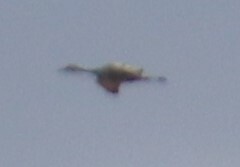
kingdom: Animalia
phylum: Chordata
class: Aves
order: Gruiformes
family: Gruidae
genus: Grus
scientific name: Grus canadensis
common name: Sandhill crane
